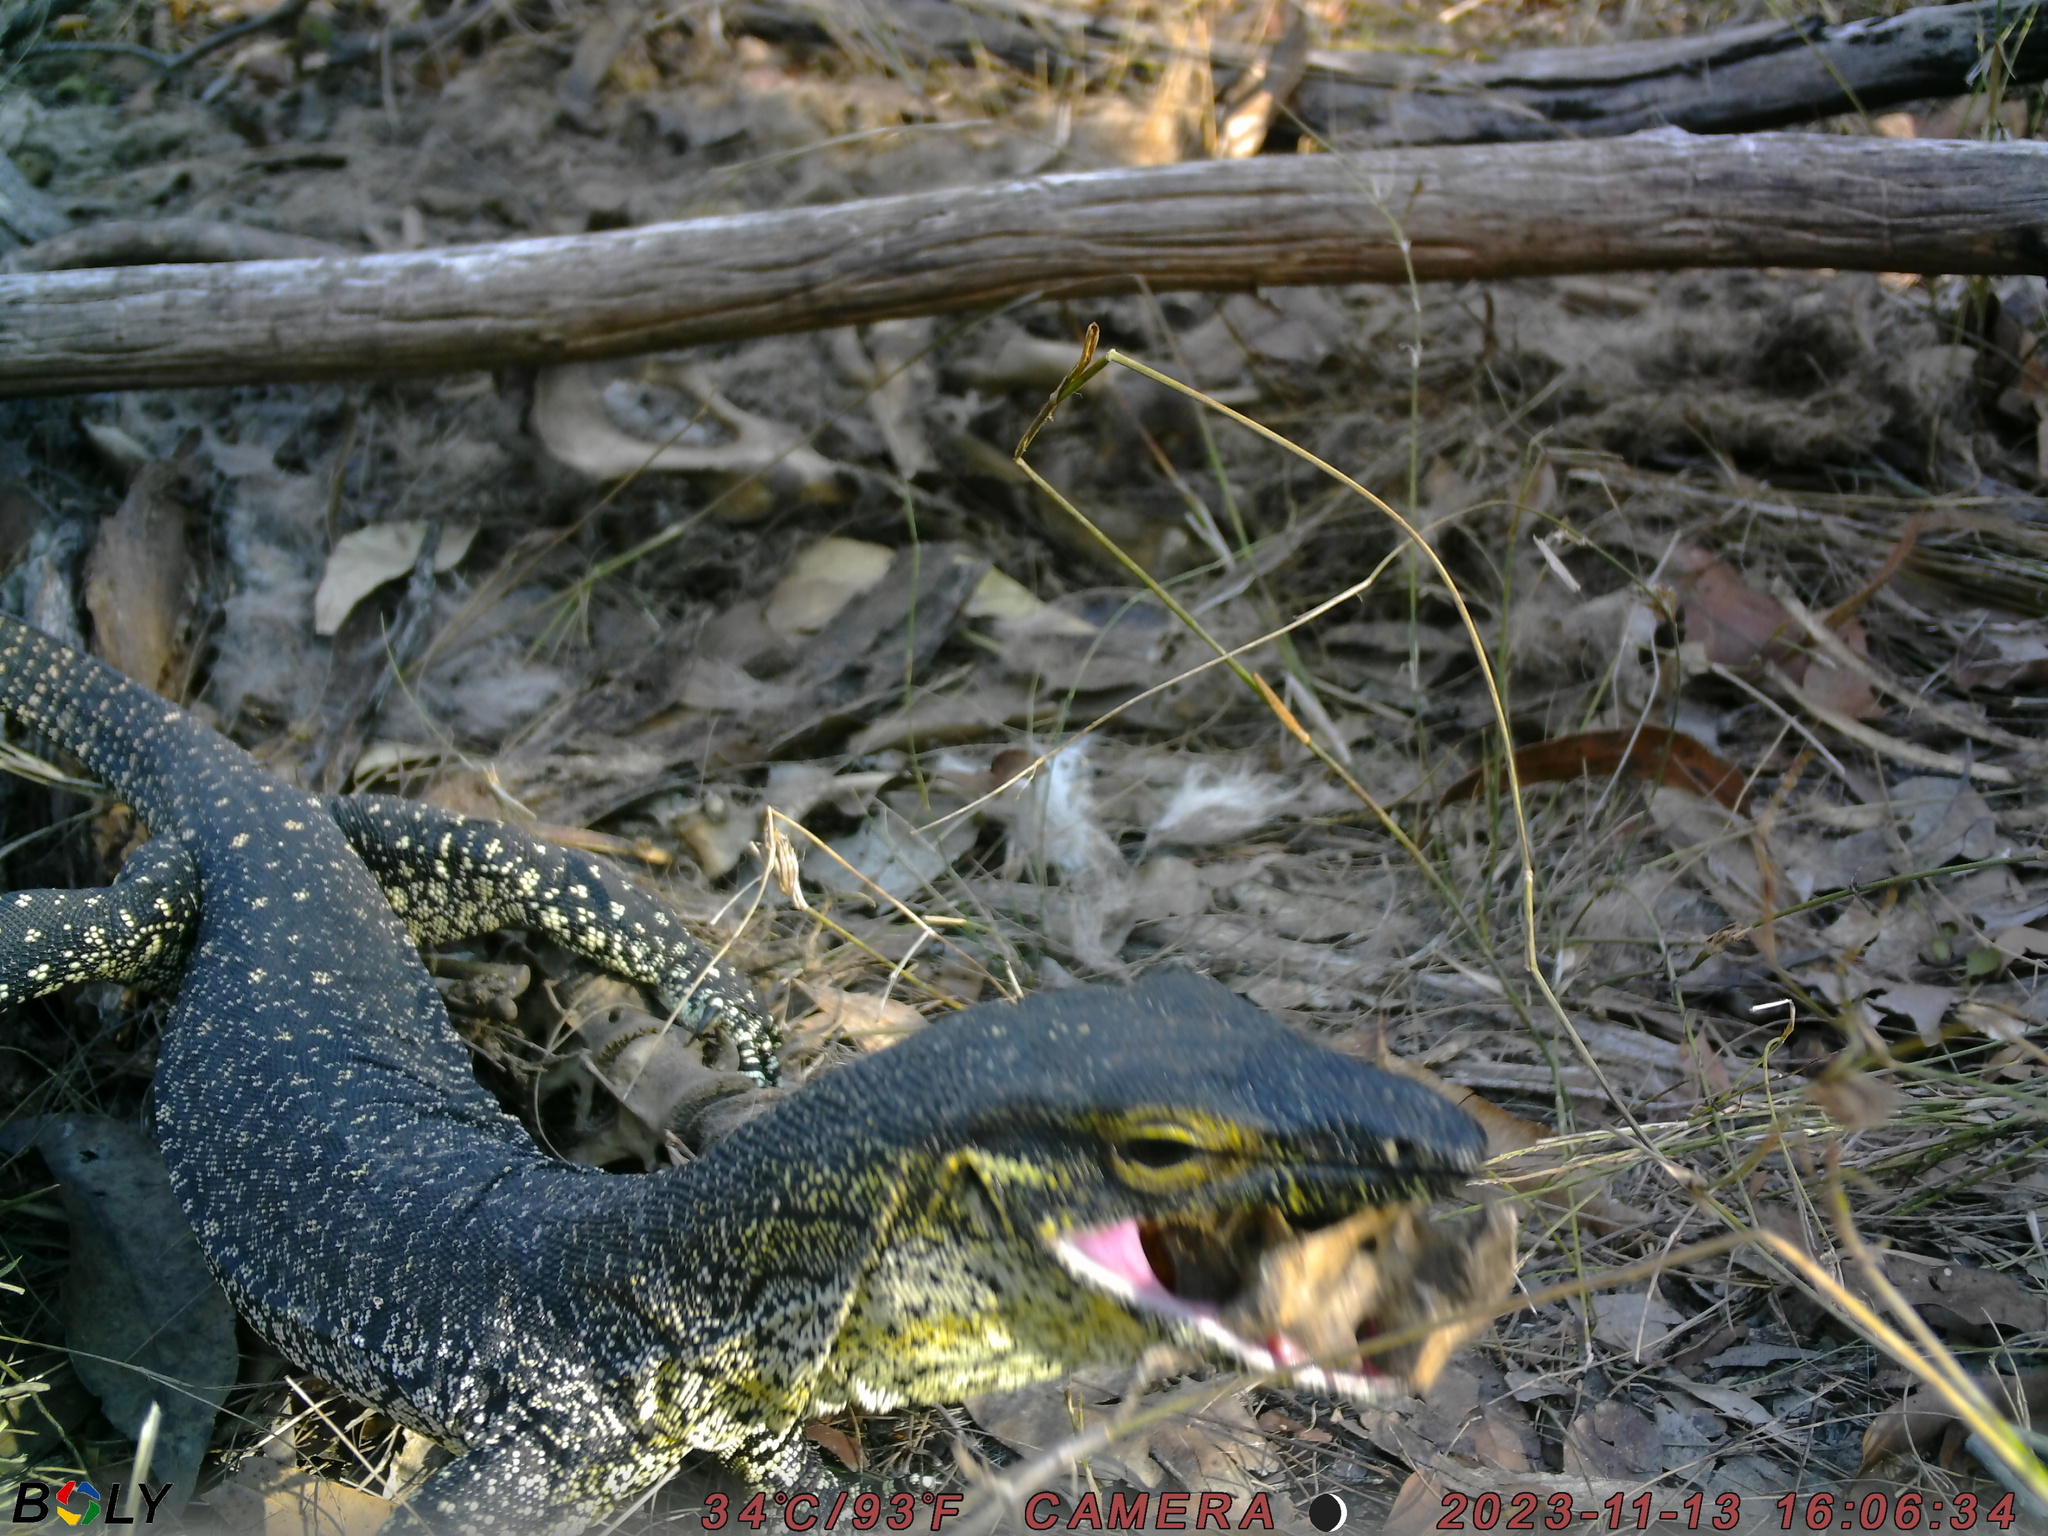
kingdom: Animalia
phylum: Chordata
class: Squamata
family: Varanidae
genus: Varanus
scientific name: Varanus varius
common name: Lace monitor
